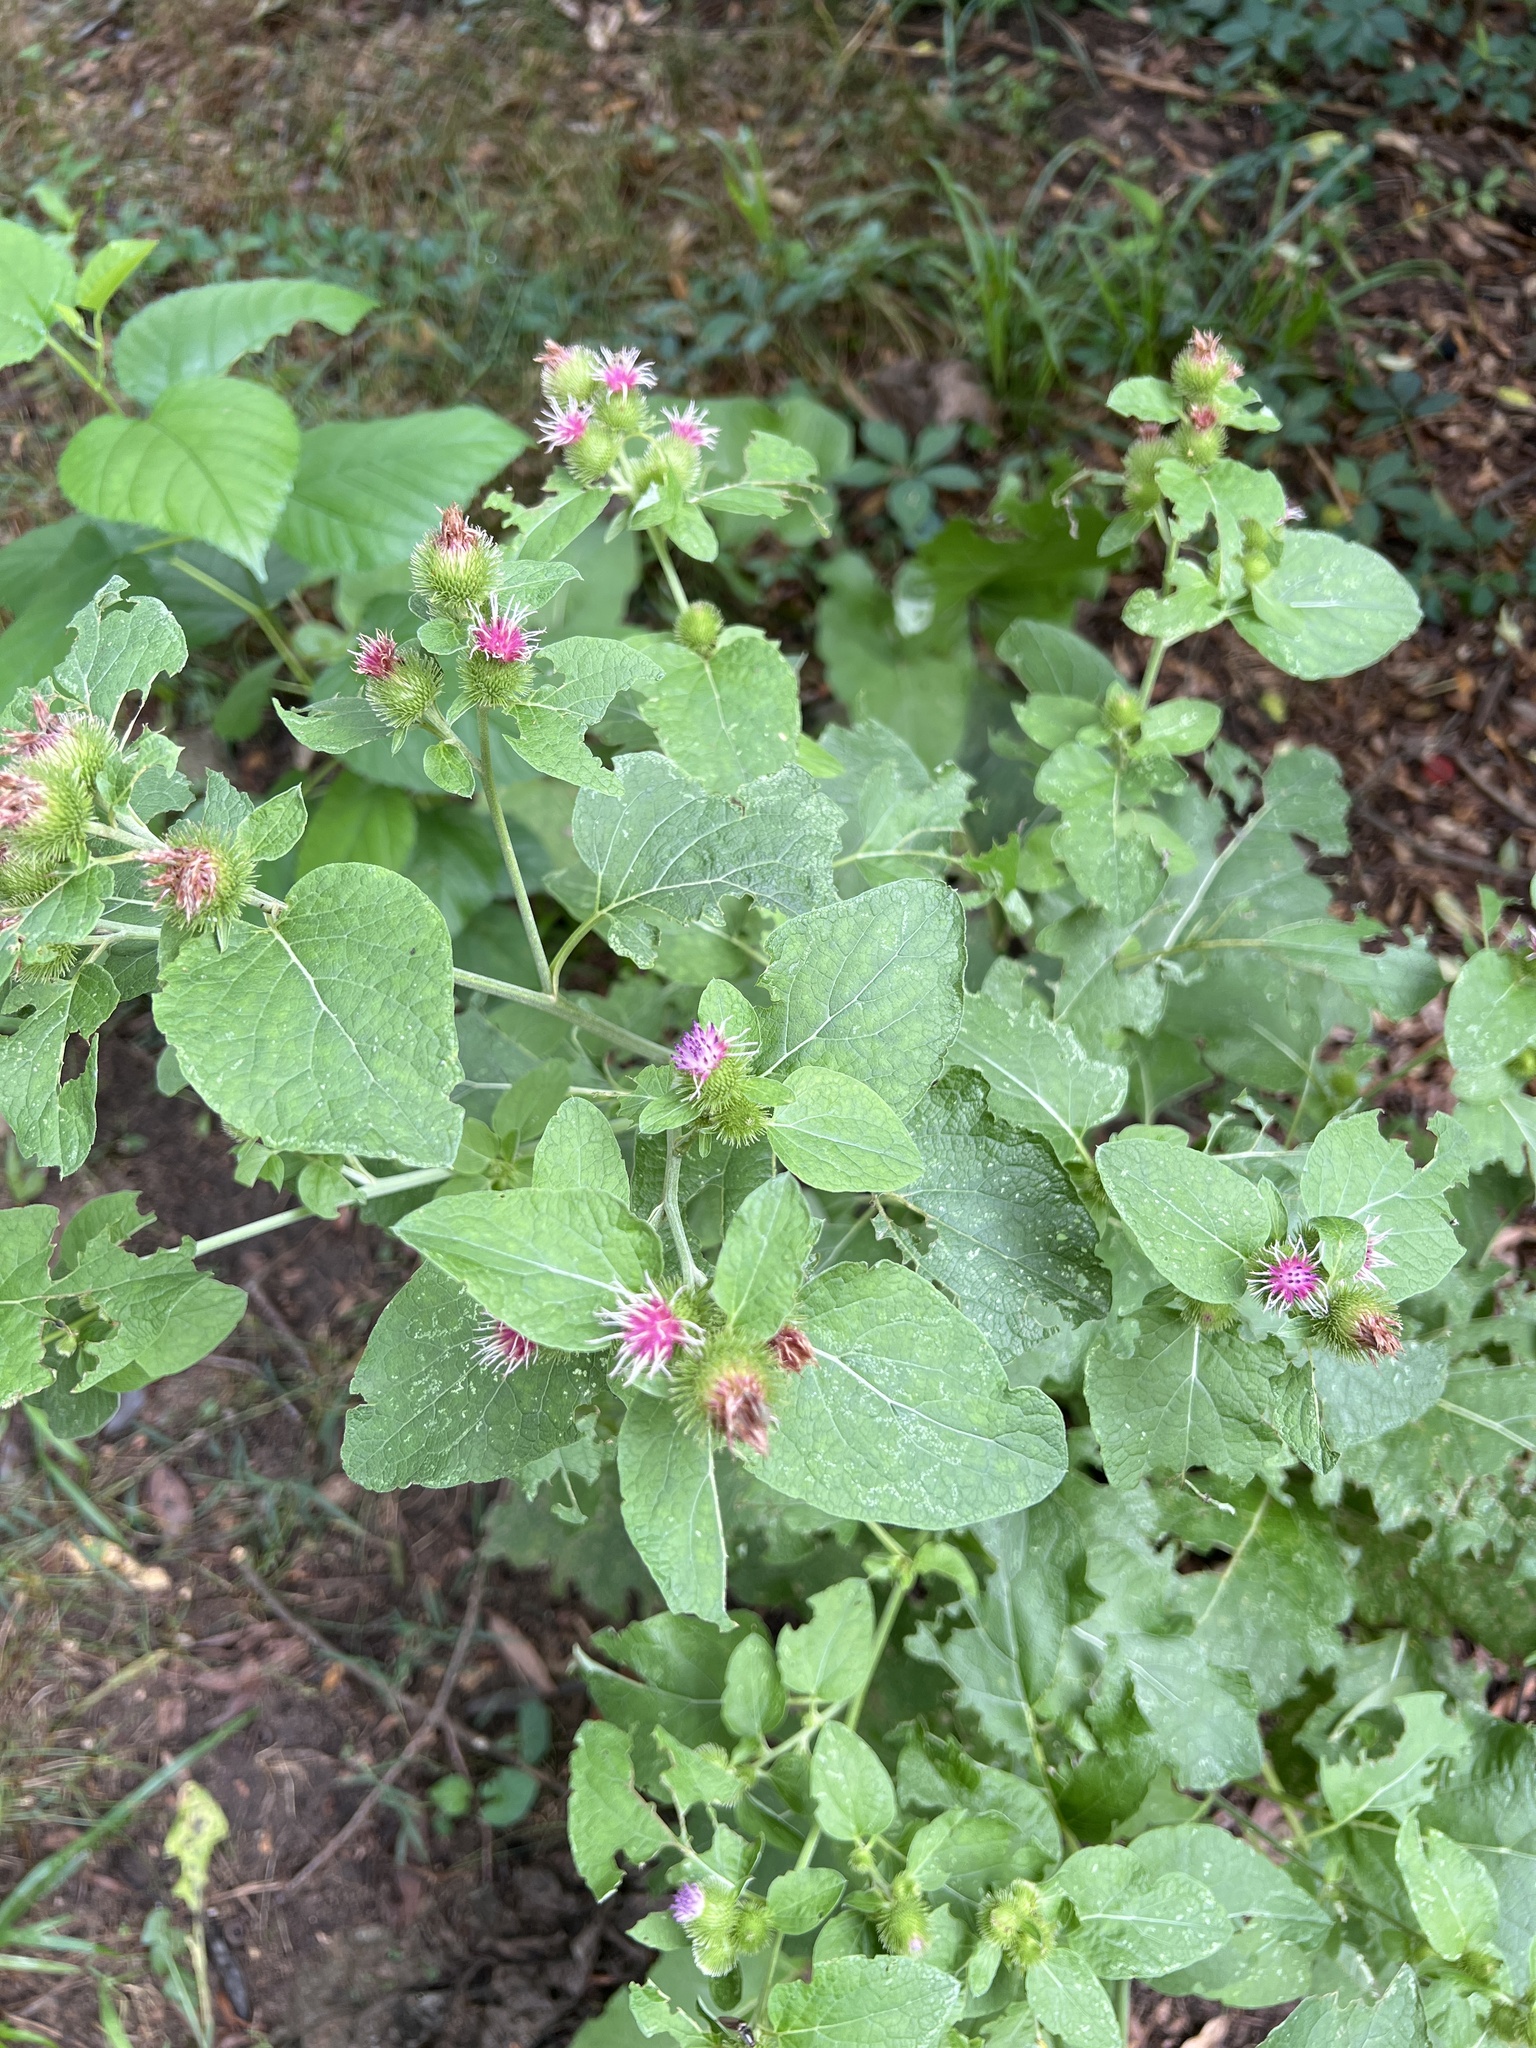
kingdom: Plantae
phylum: Tracheophyta
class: Magnoliopsida
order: Asterales
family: Asteraceae
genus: Arctium
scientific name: Arctium minus
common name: Lesser burdock
